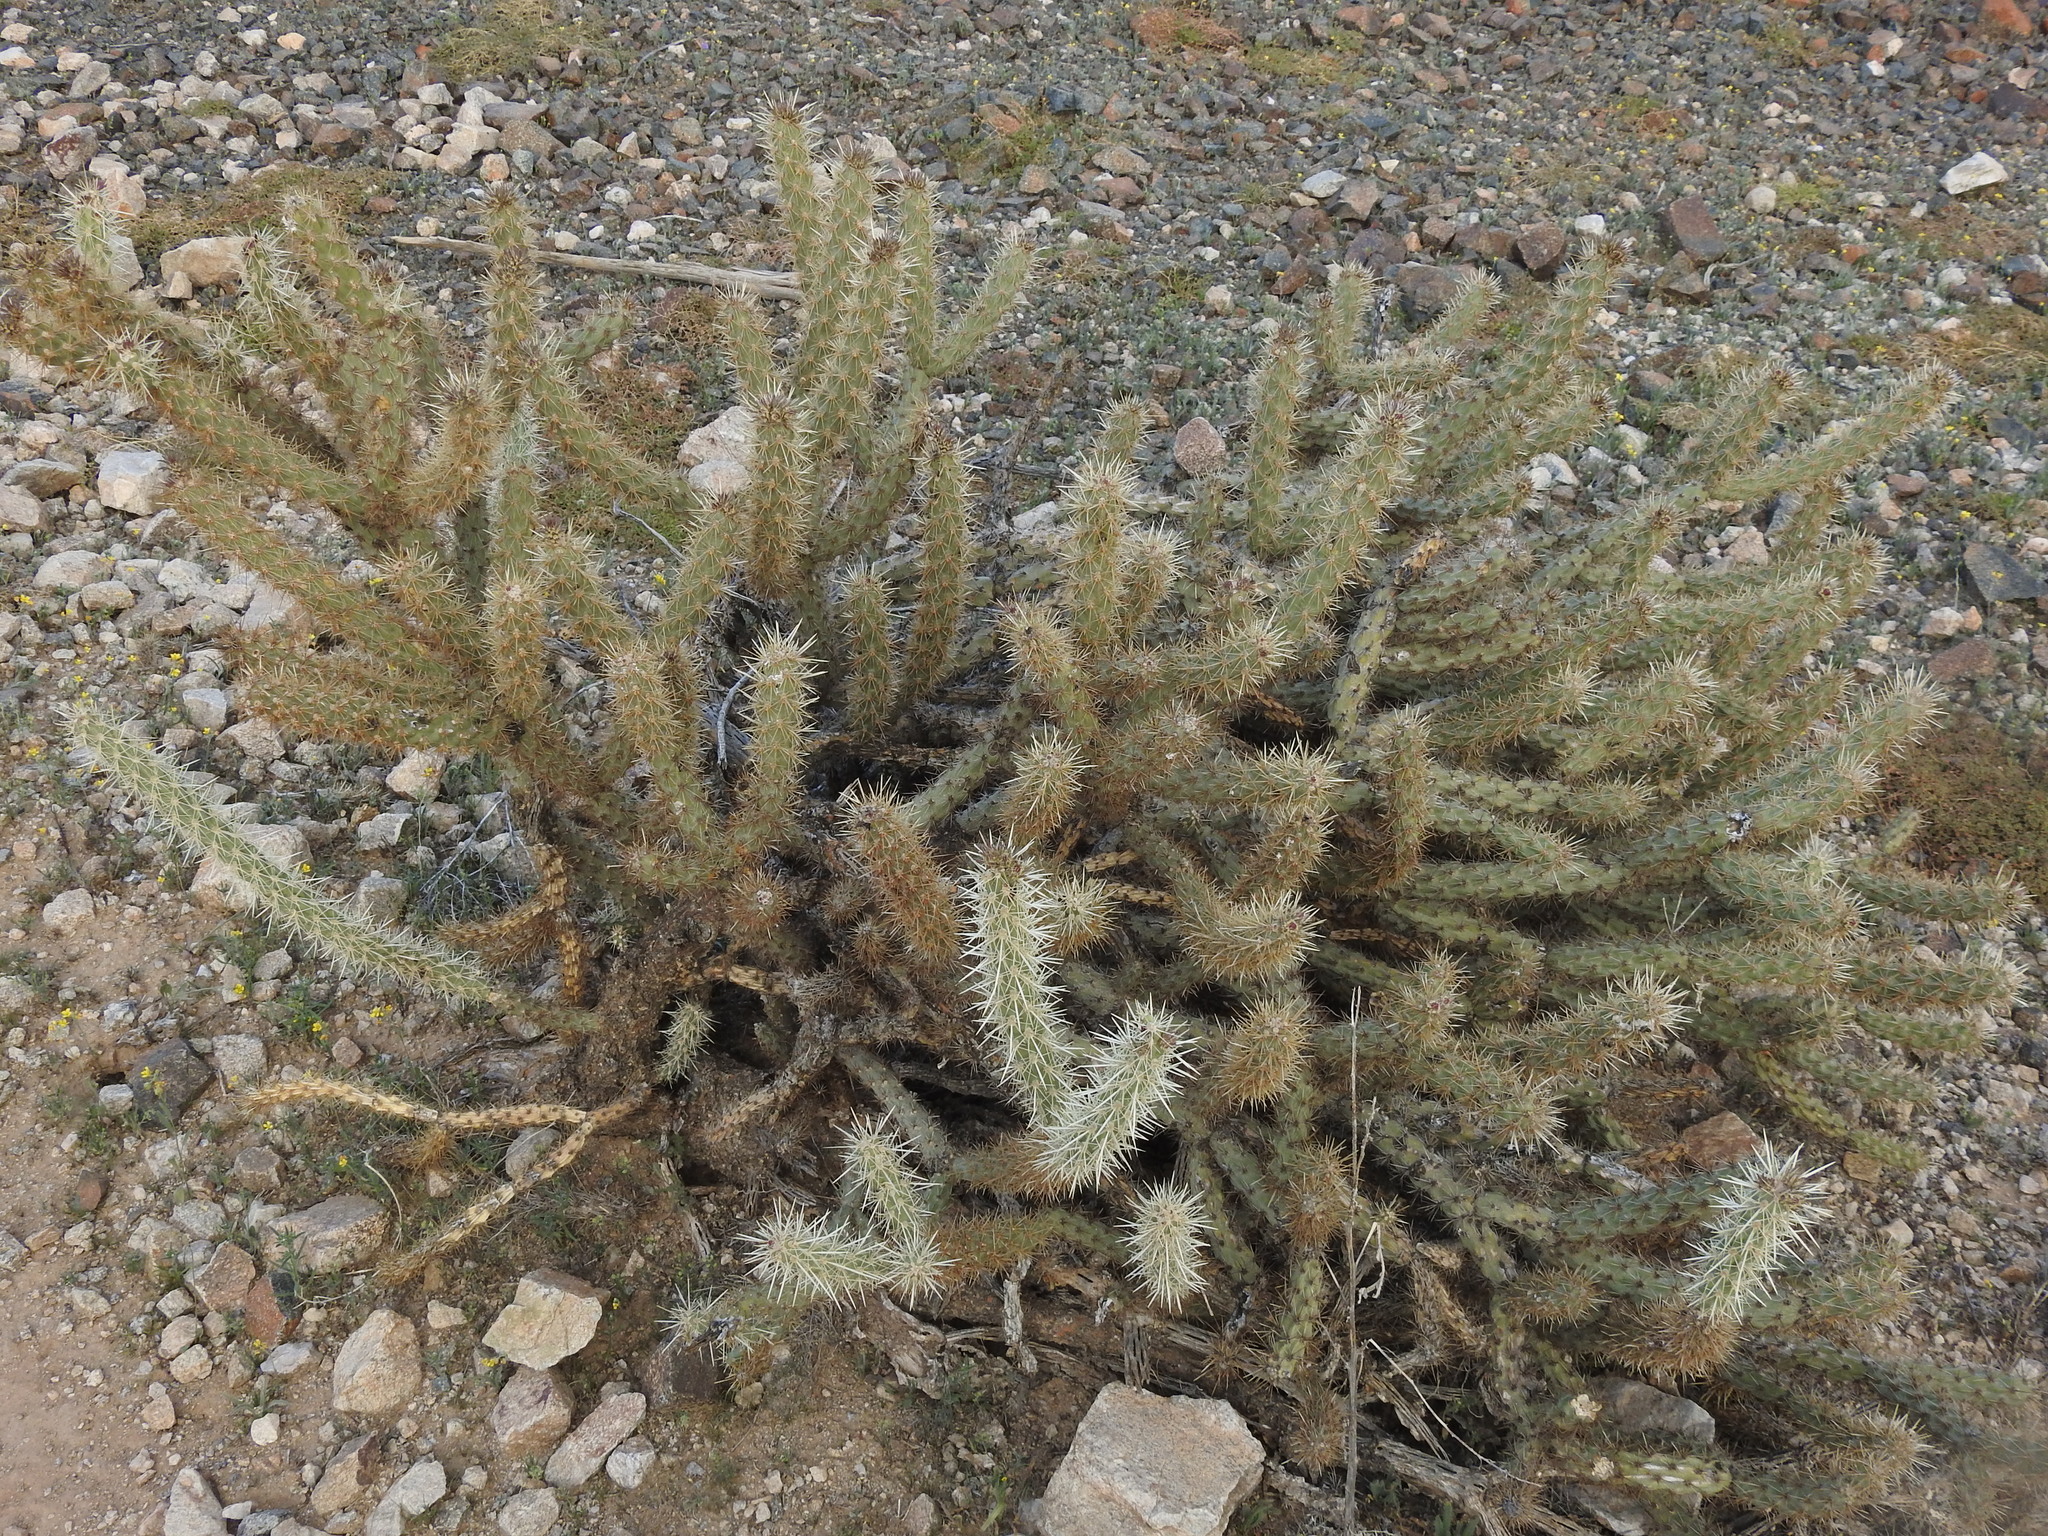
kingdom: Plantae
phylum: Tracheophyta
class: Magnoliopsida
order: Caryophyllales
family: Cactaceae
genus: Cylindropuntia
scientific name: Cylindropuntia acanthocarpa
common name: Buckhorn cholla
